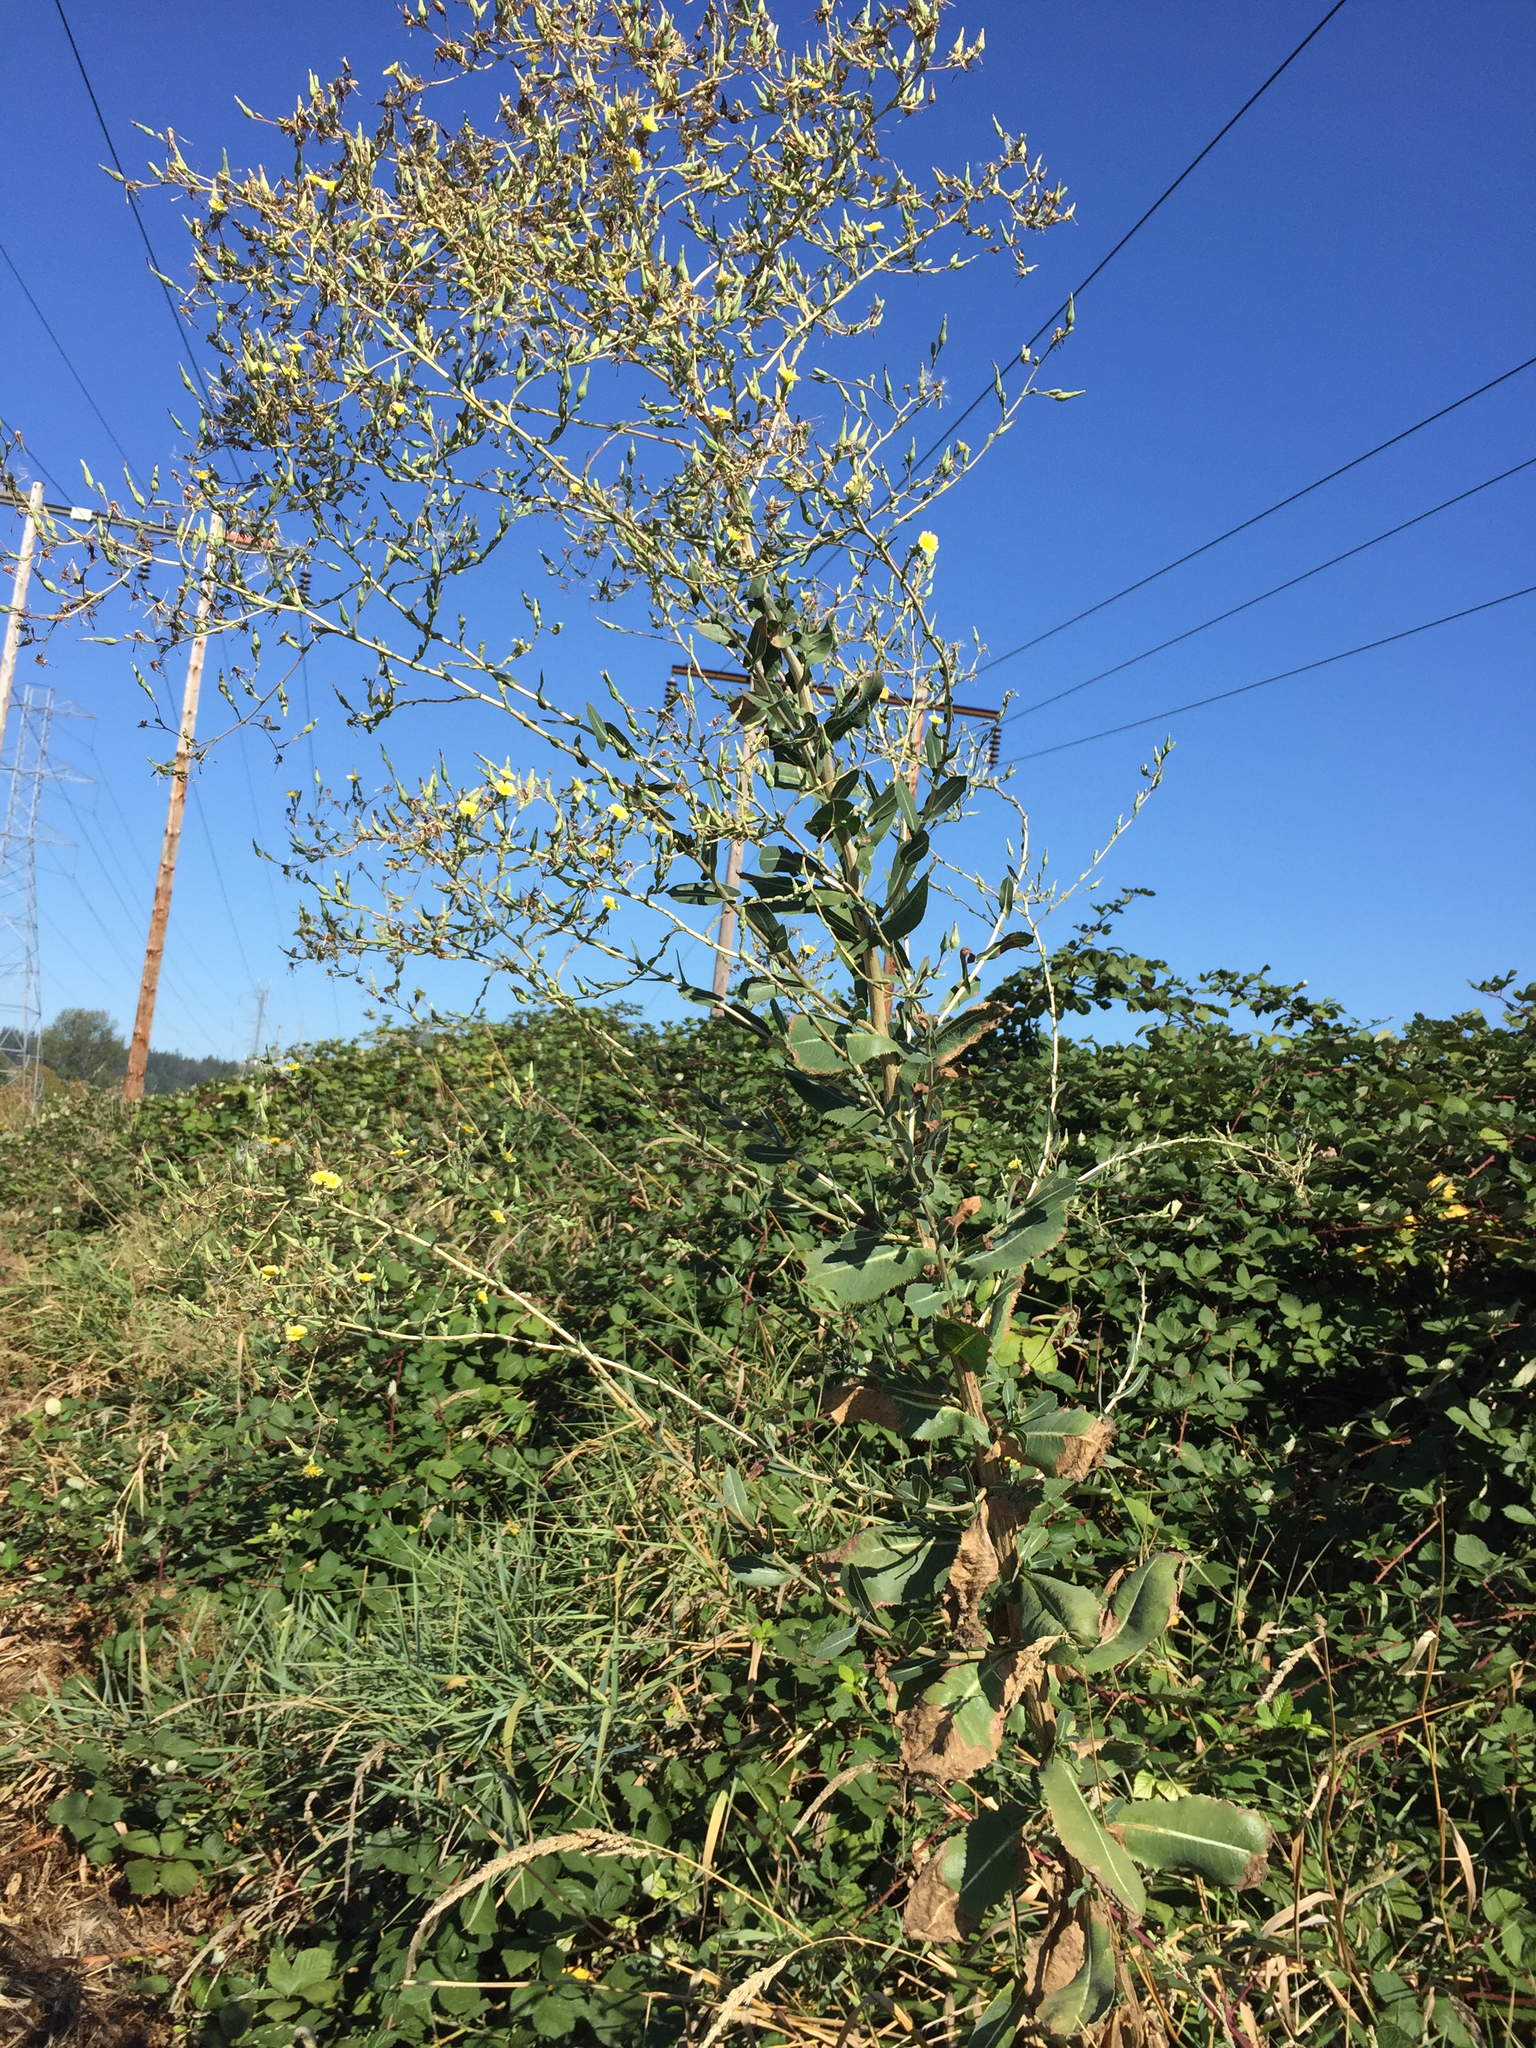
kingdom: Plantae
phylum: Tracheophyta
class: Magnoliopsida
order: Asterales
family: Asteraceae
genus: Lactuca
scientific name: Lactuca serriola
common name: Prickly lettuce
